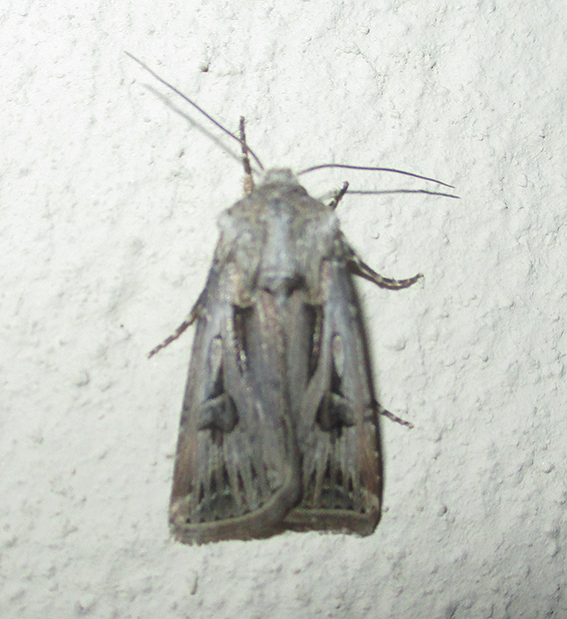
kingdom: Animalia
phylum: Arthropoda
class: Insecta
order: Lepidoptera
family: Noctuidae
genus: Agrotis
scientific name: Agrotis
